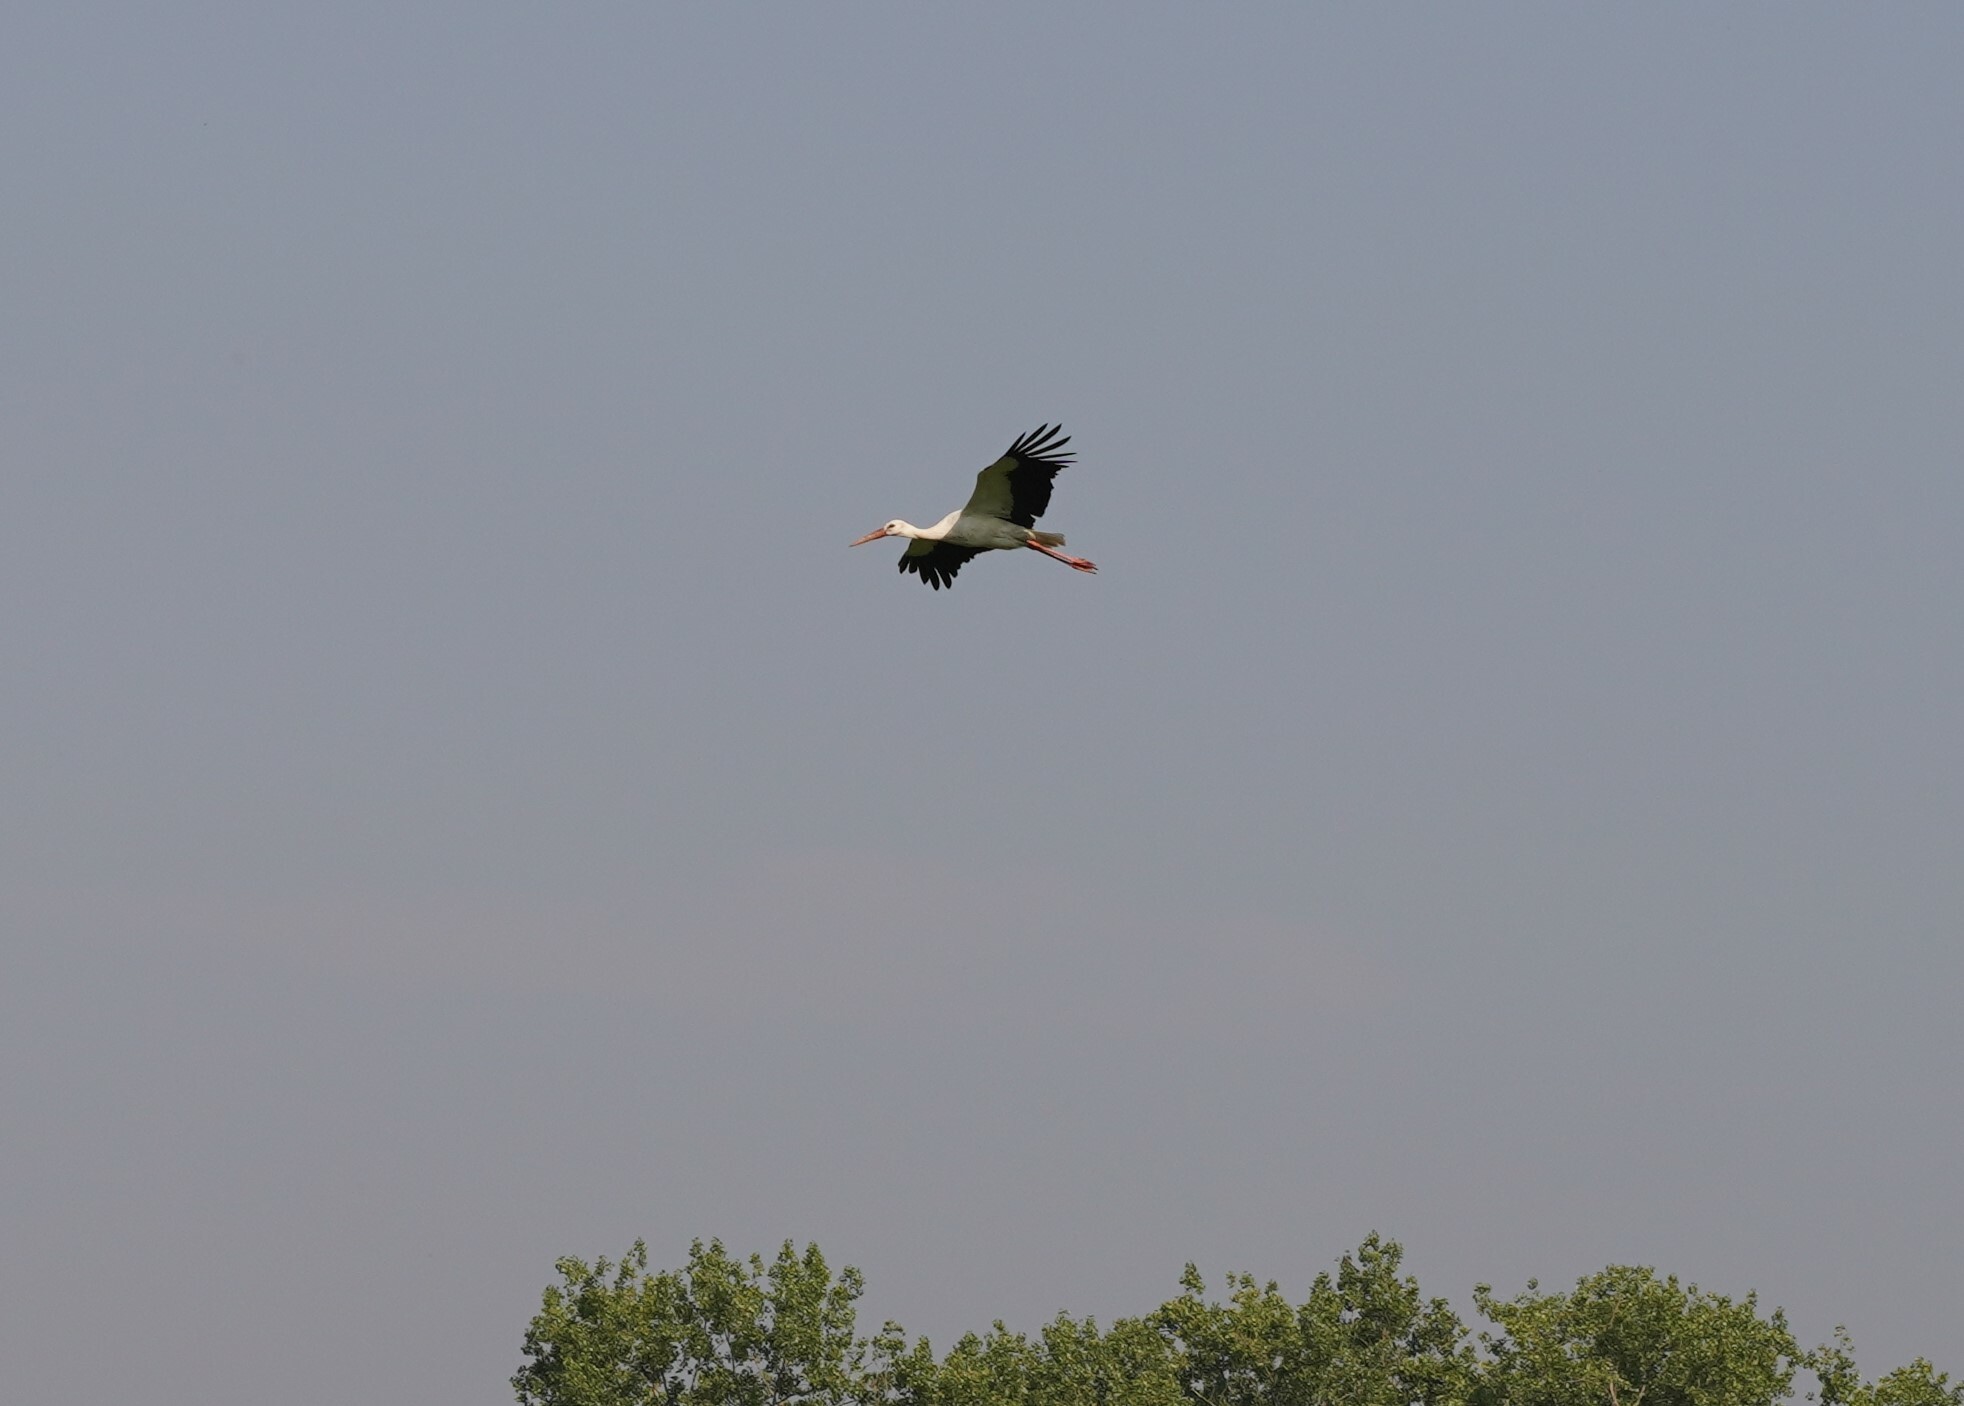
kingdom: Animalia
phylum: Chordata
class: Aves
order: Ciconiiformes
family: Ciconiidae
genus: Ciconia
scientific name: Ciconia ciconia
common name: White stork
